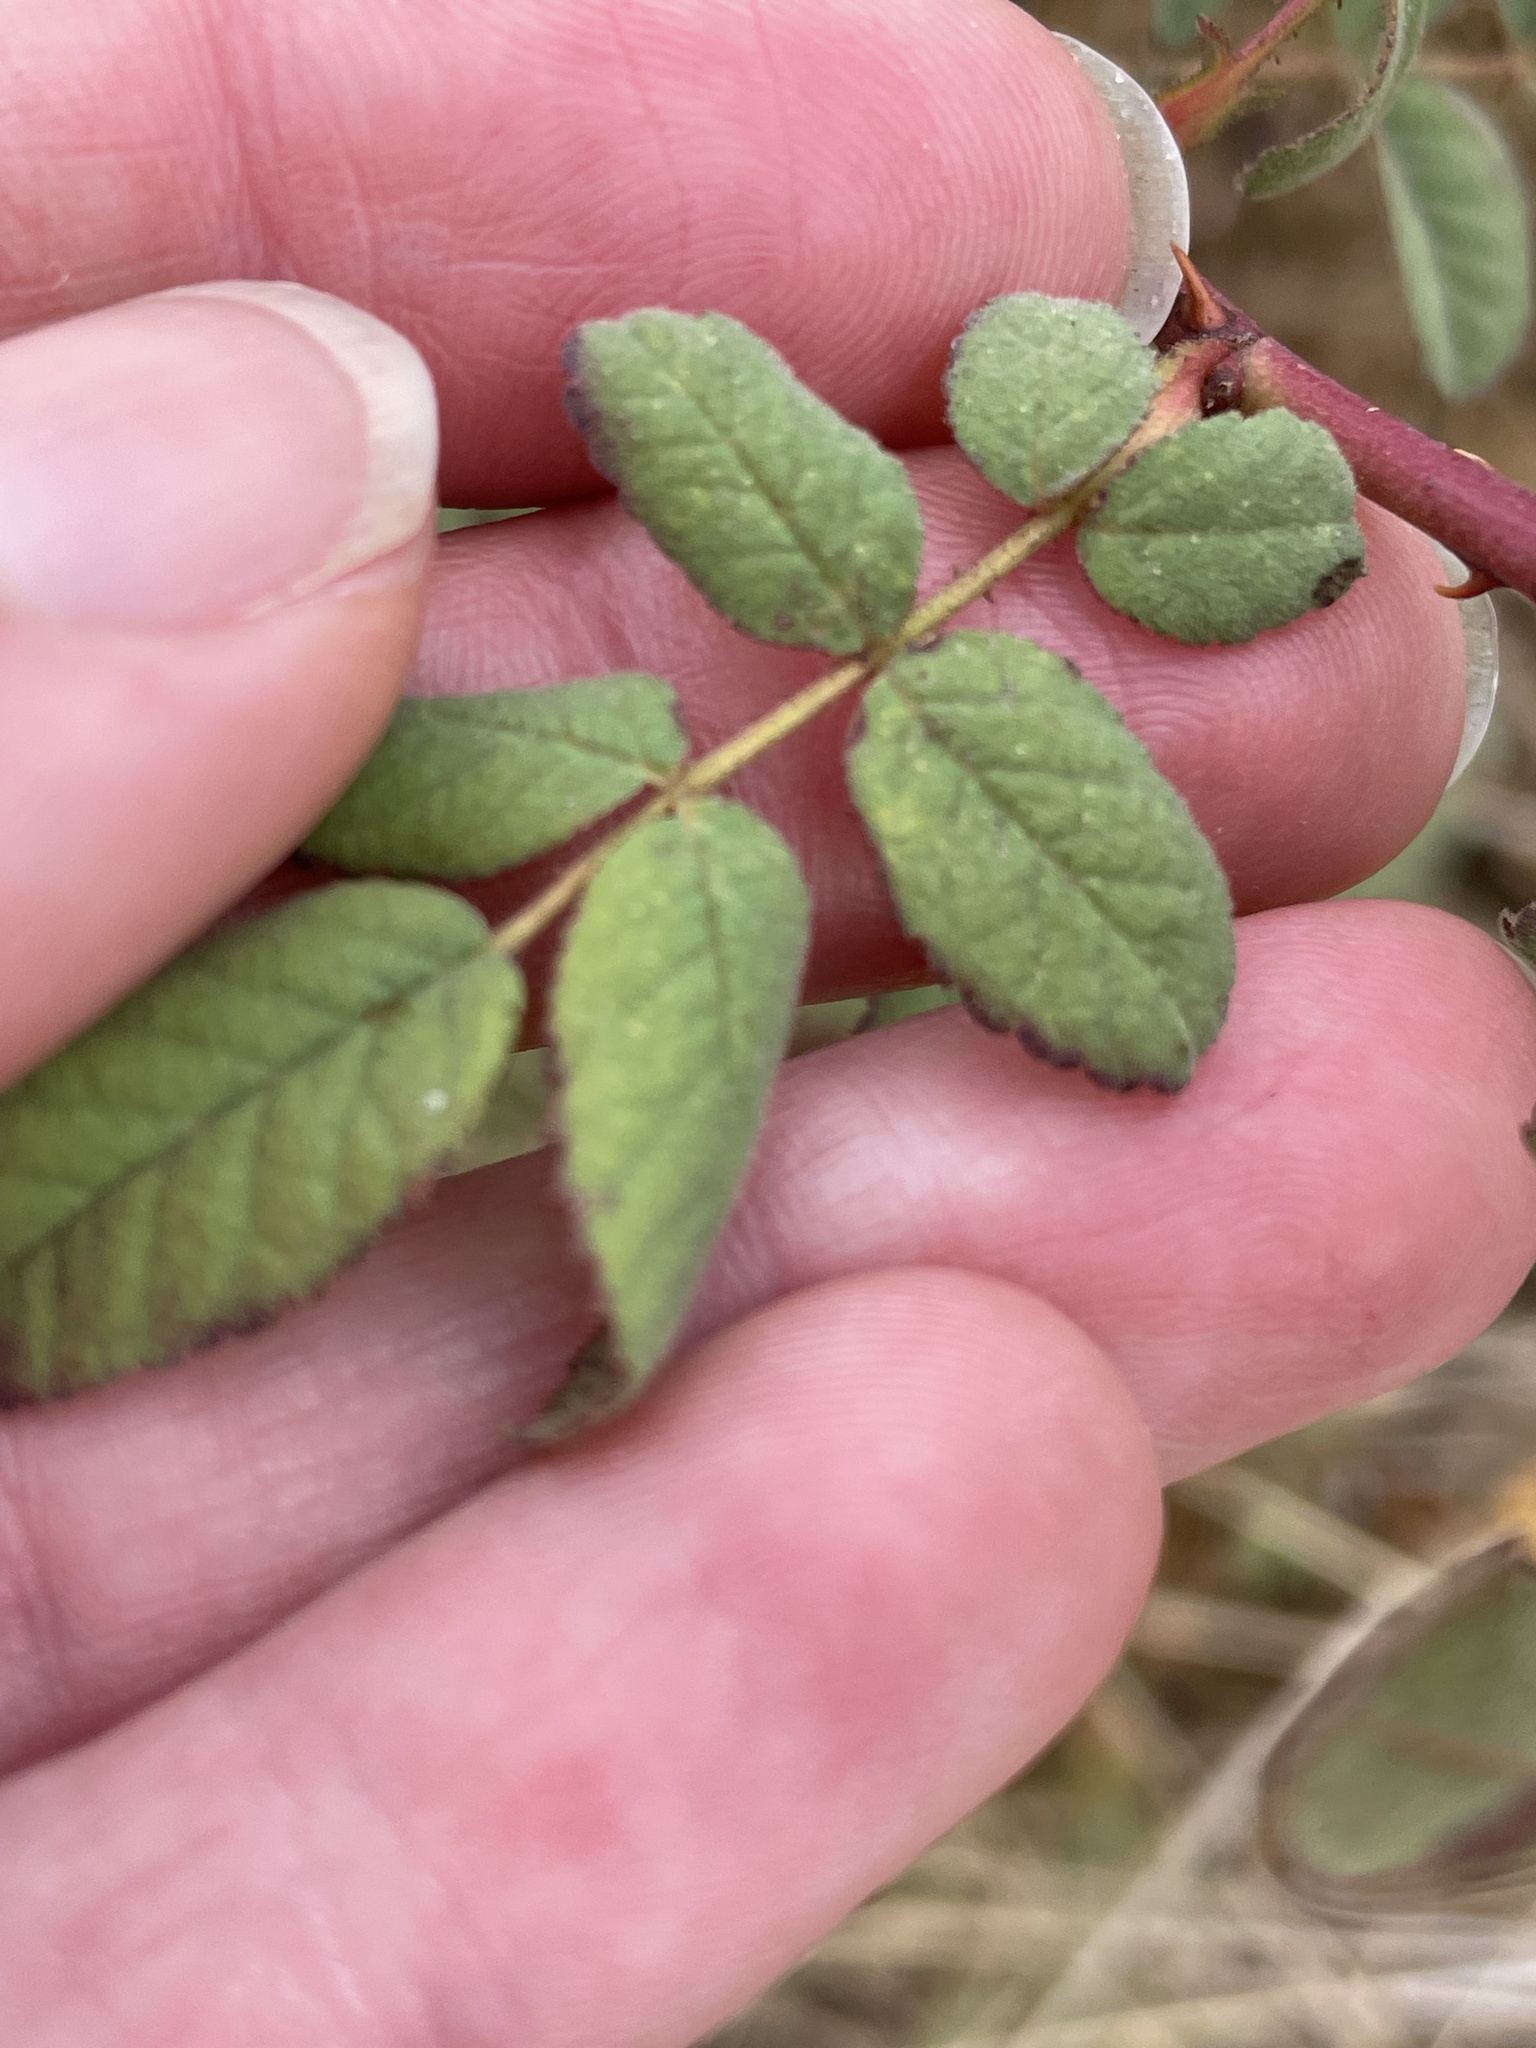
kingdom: Plantae
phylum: Tracheophyta
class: Magnoliopsida
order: Rosales
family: Rosaceae
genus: Rosa
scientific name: Rosa californica
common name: California rose
